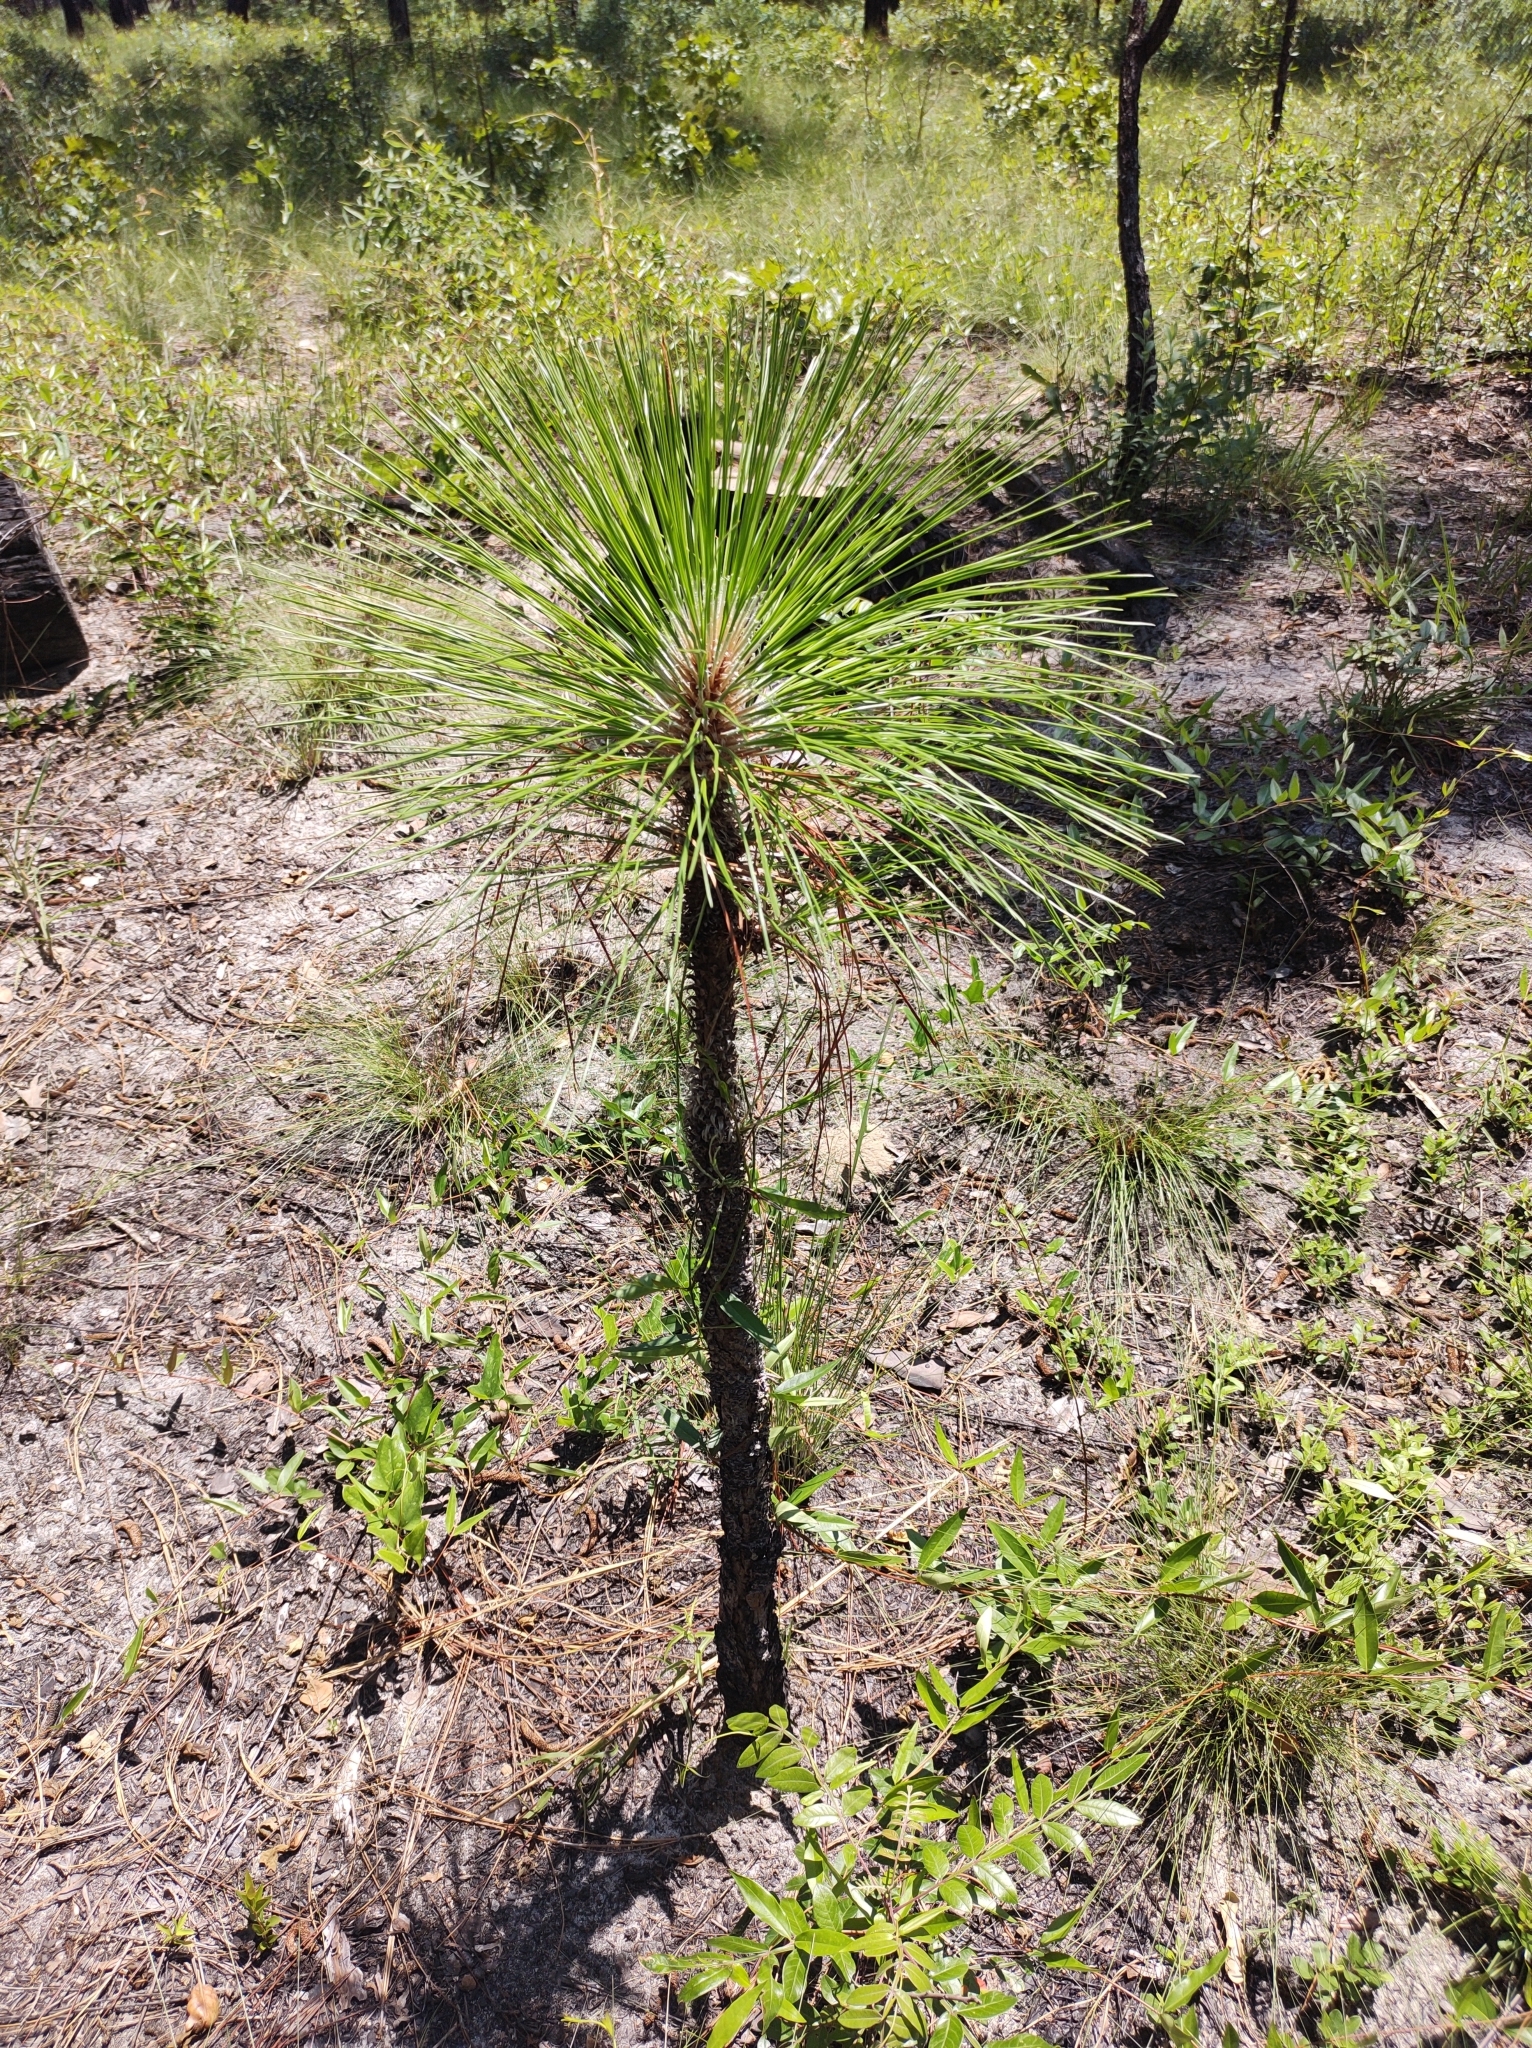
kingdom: Plantae
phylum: Tracheophyta
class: Pinopsida
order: Pinales
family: Pinaceae
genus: Pinus
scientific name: Pinus palustris
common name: Longleaf pine
